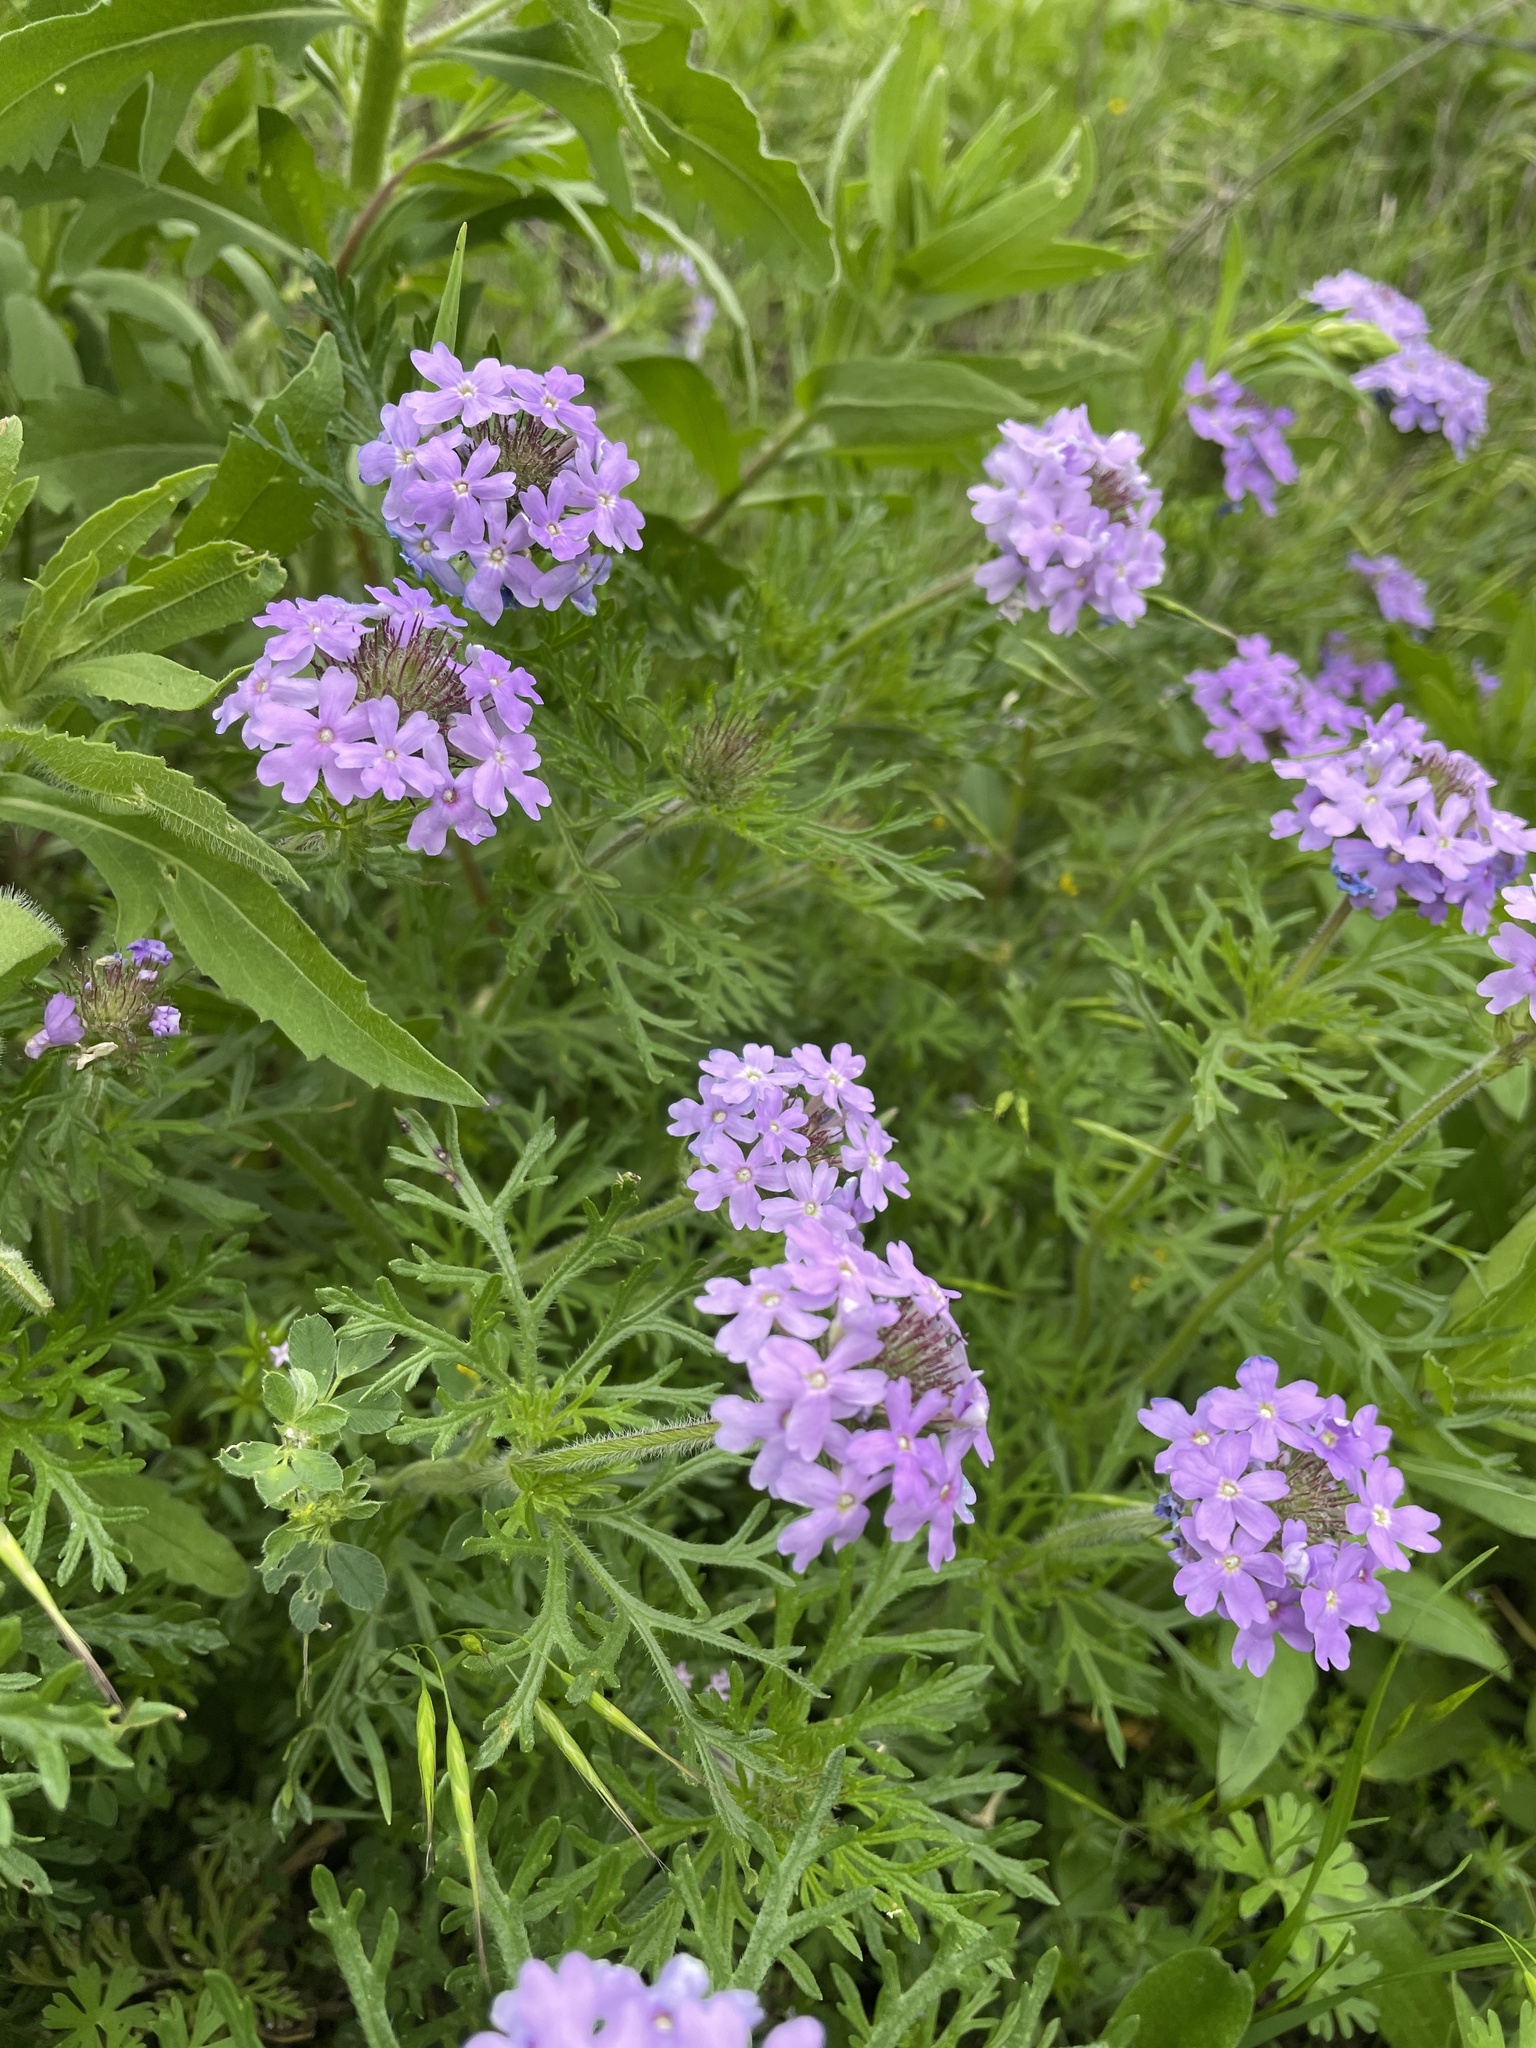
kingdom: Plantae
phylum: Tracheophyta
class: Magnoliopsida
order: Lamiales
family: Verbenaceae
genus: Verbena
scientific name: Verbena bipinnatifida
